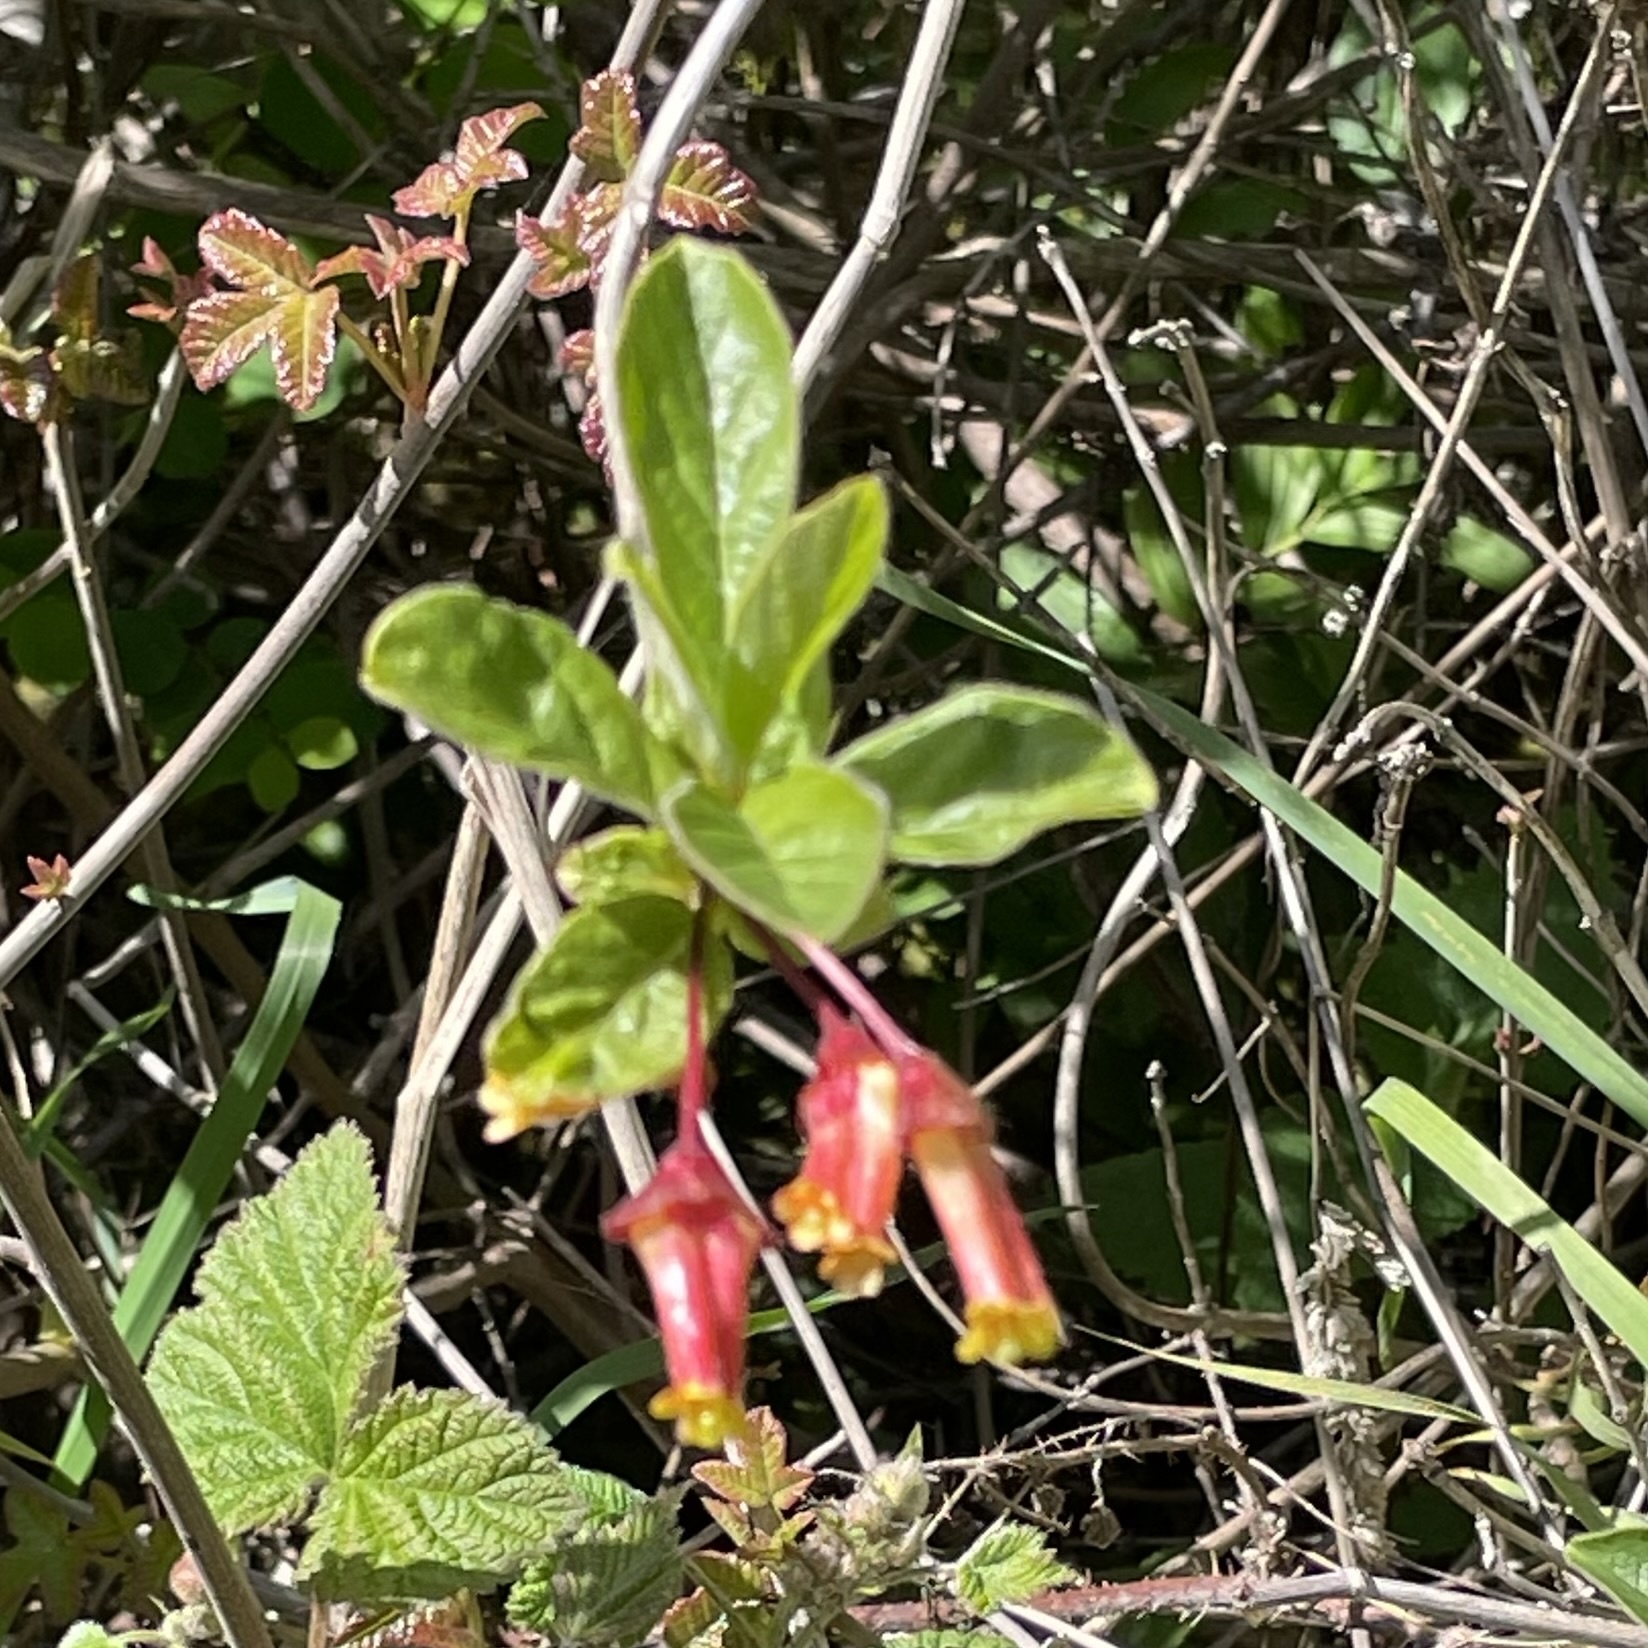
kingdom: Plantae
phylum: Tracheophyta
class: Magnoliopsida
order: Dipsacales
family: Caprifoliaceae
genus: Lonicera
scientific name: Lonicera involucrata
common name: Californian honeysuckle
